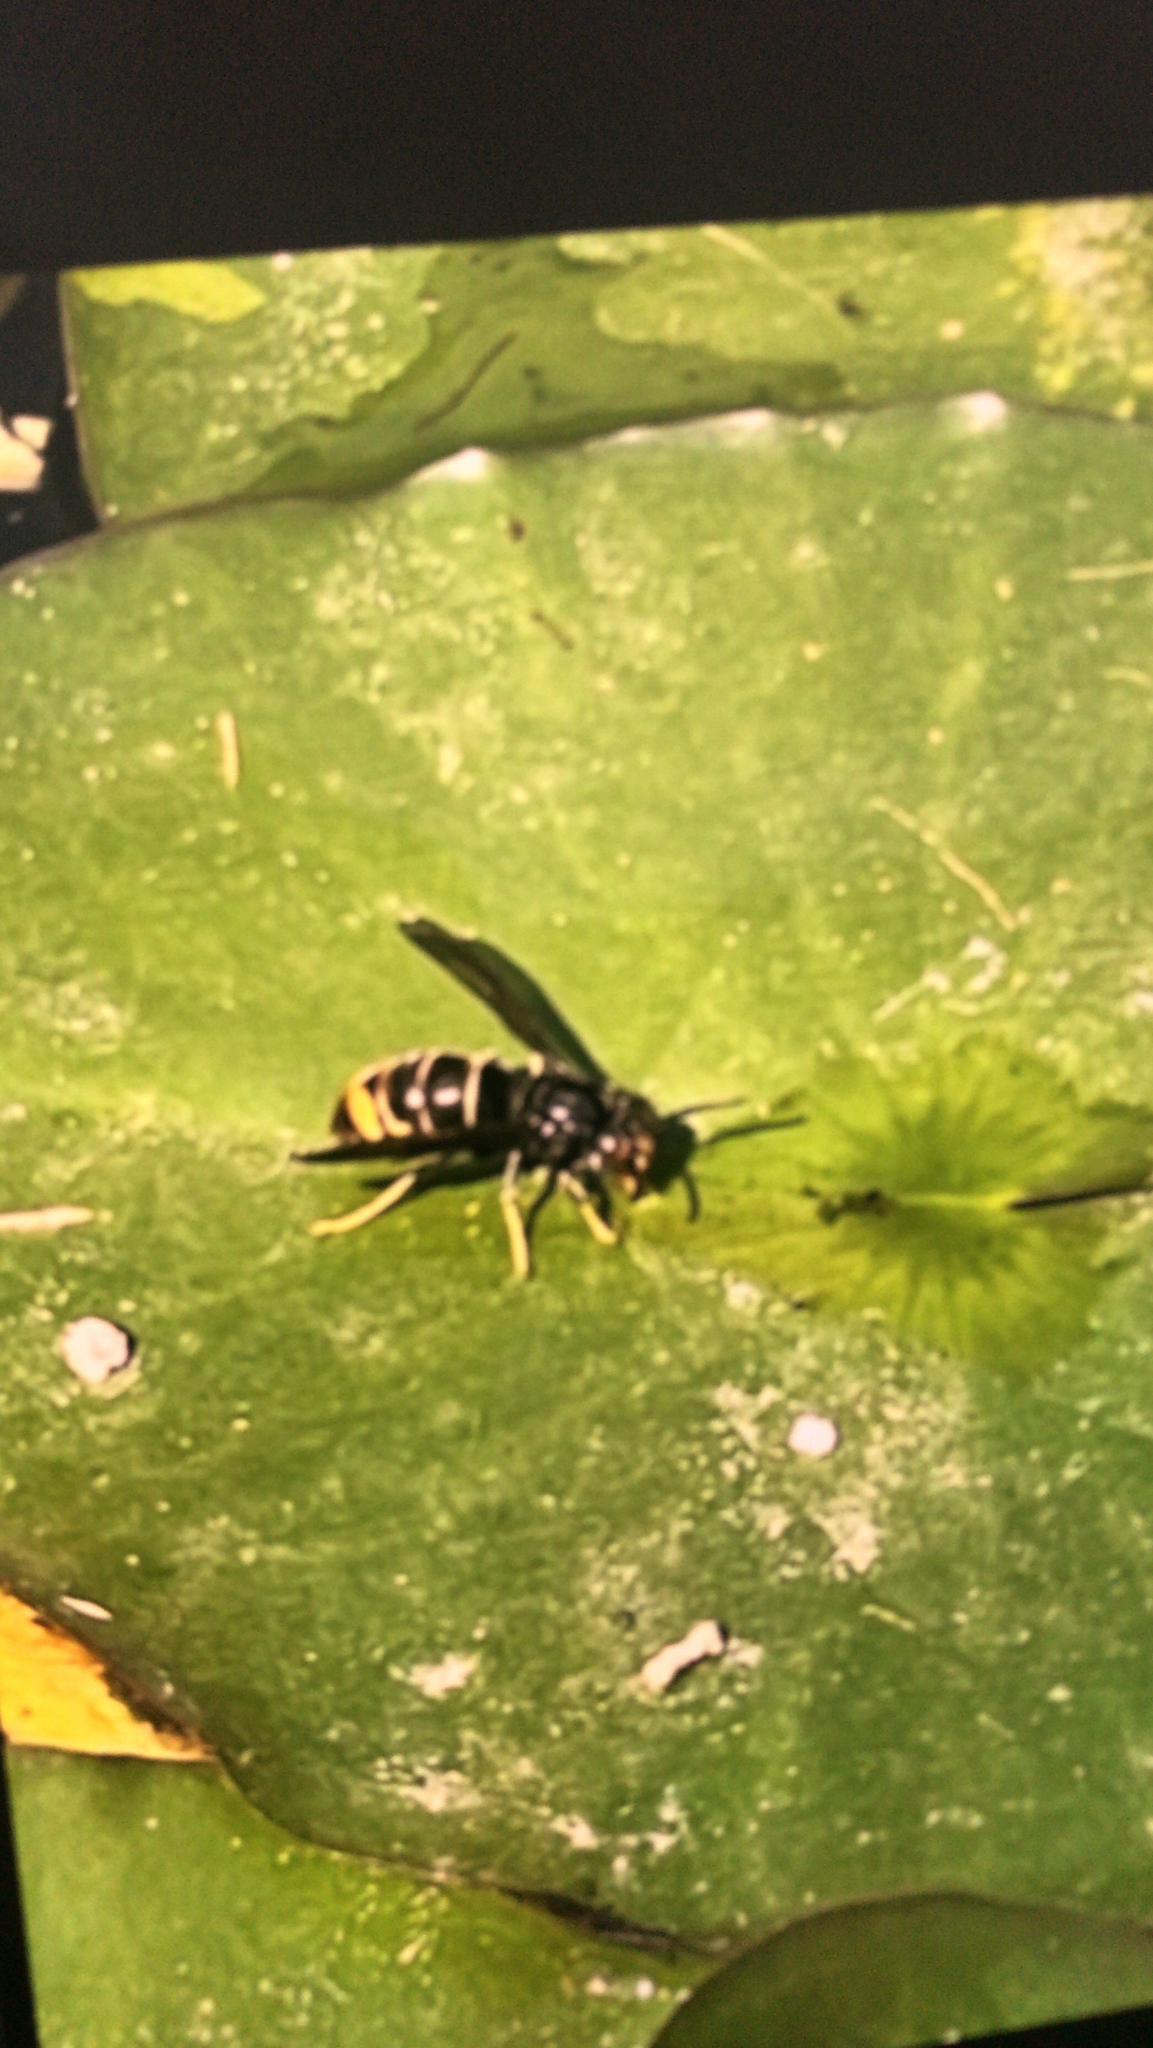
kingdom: Animalia
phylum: Arthropoda
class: Insecta
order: Hymenoptera
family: Vespidae
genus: Vespa
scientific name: Vespa velutina
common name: Asian hornet
